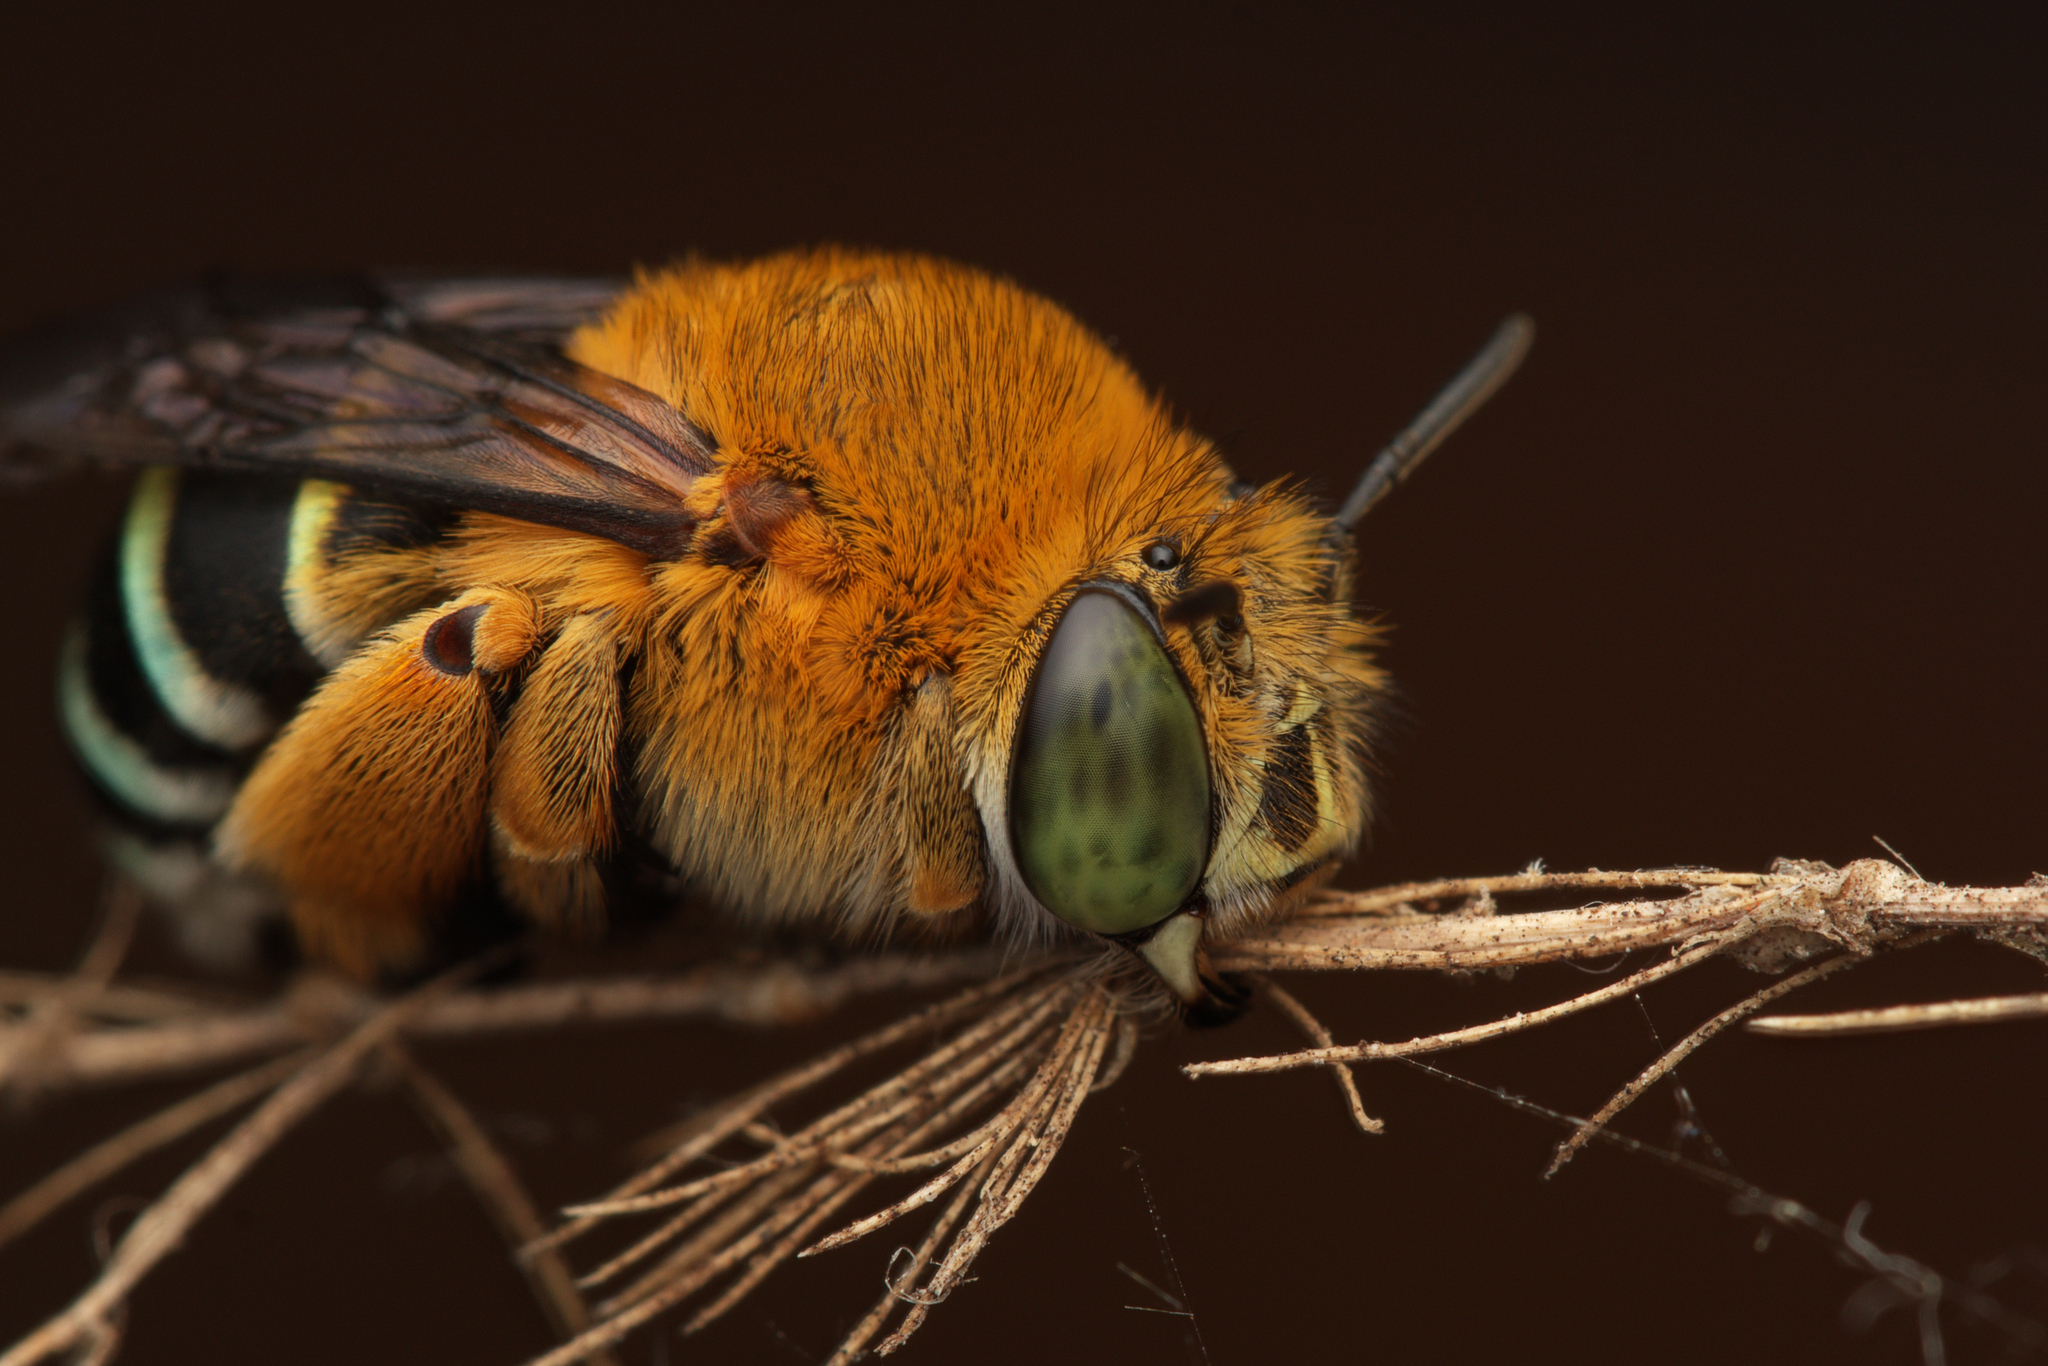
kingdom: Animalia
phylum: Arthropoda
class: Insecta
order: Hymenoptera
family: Apidae
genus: Amegilla
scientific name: Amegilla cingulata
